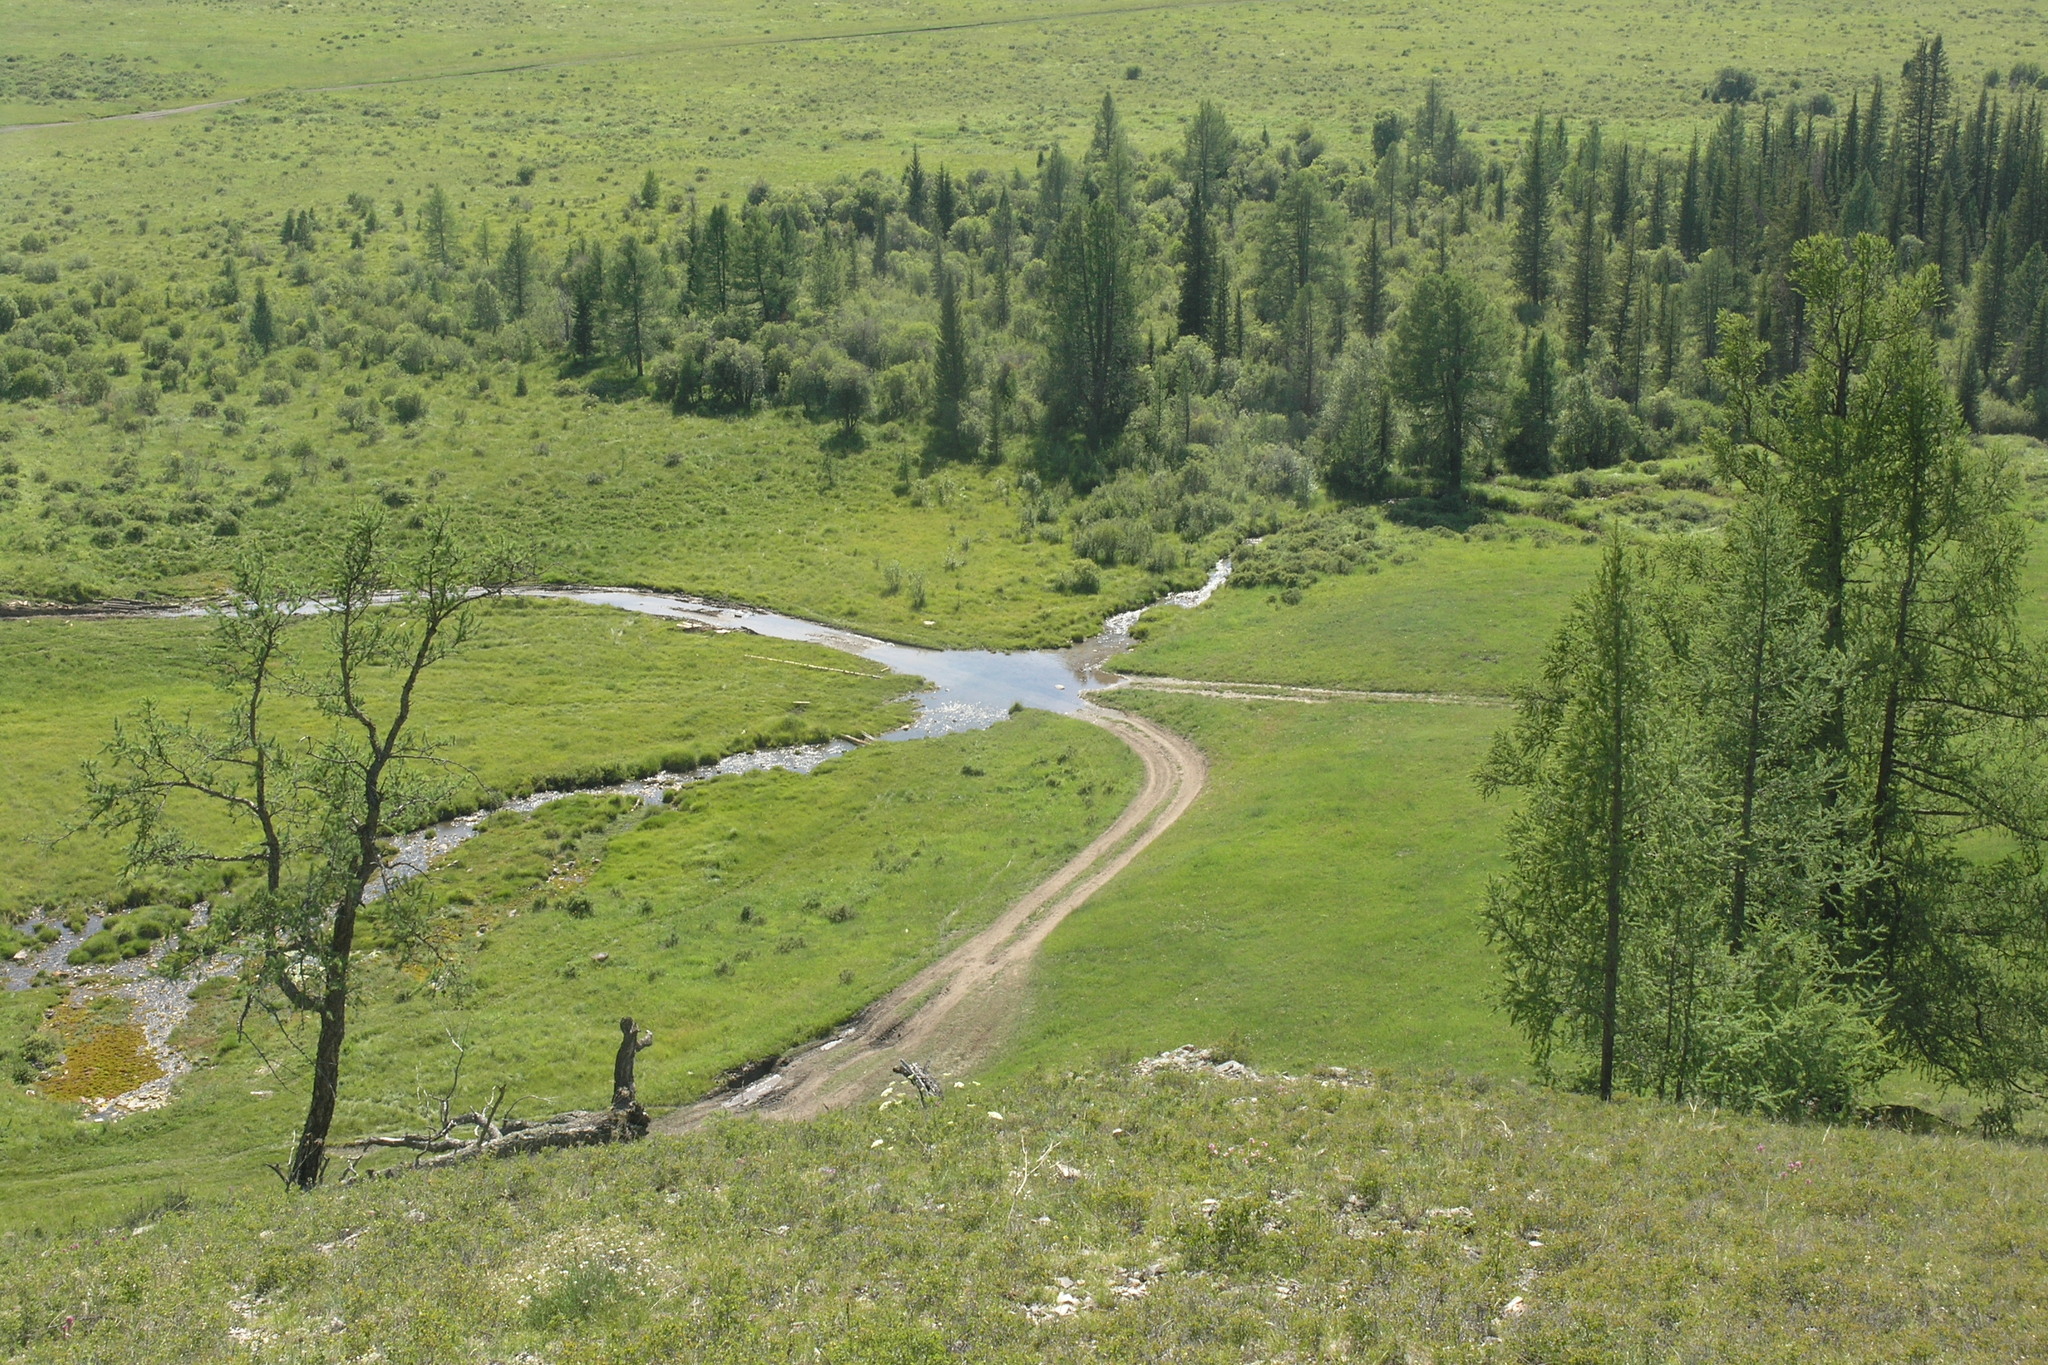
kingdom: Plantae
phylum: Tracheophyta
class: Pinopsida
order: Pinales
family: Pinaceae
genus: Larix
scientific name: Larix sibirica
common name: Siberian larch
